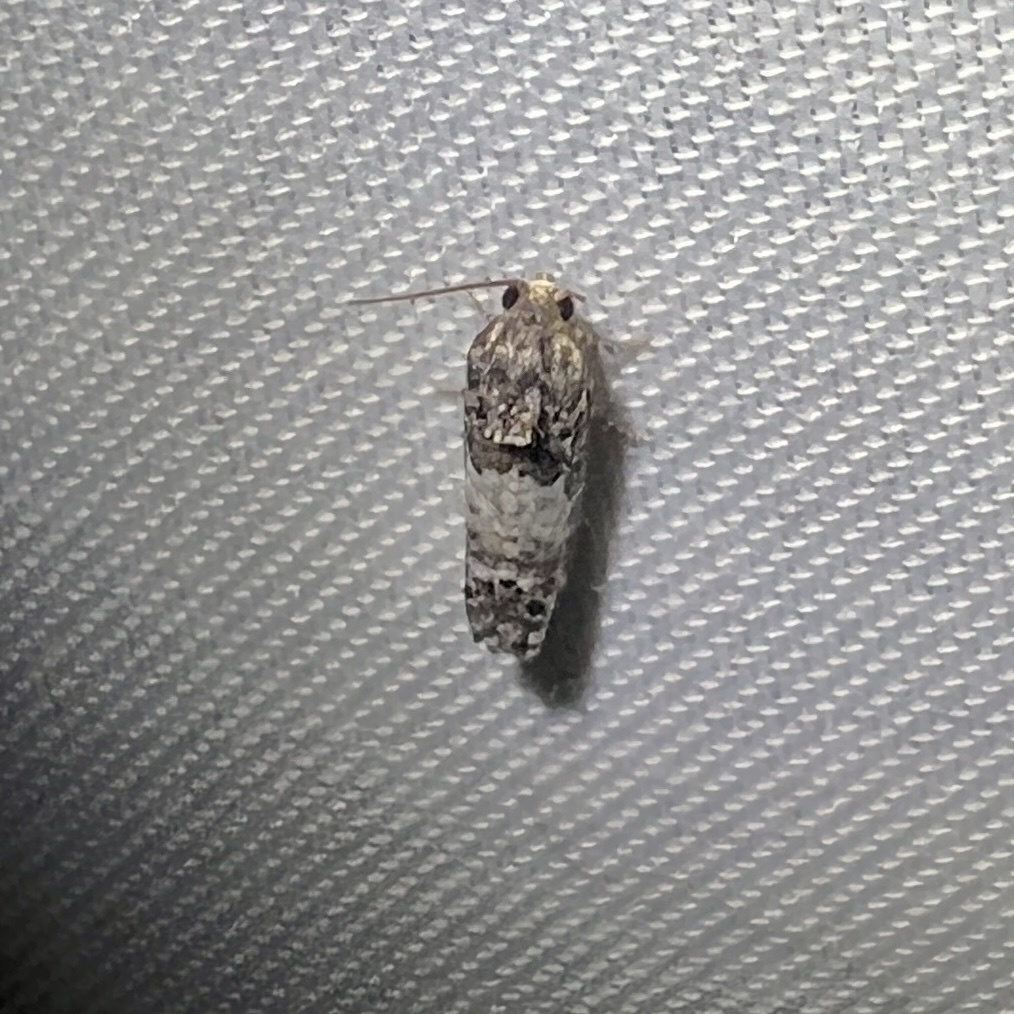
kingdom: Animalia
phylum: Arthropoda
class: Insecta
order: Lepidoptera
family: Tortricidae
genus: Epiblema
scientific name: Epiblema carolinana
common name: Gray-blotched epiblema moth
